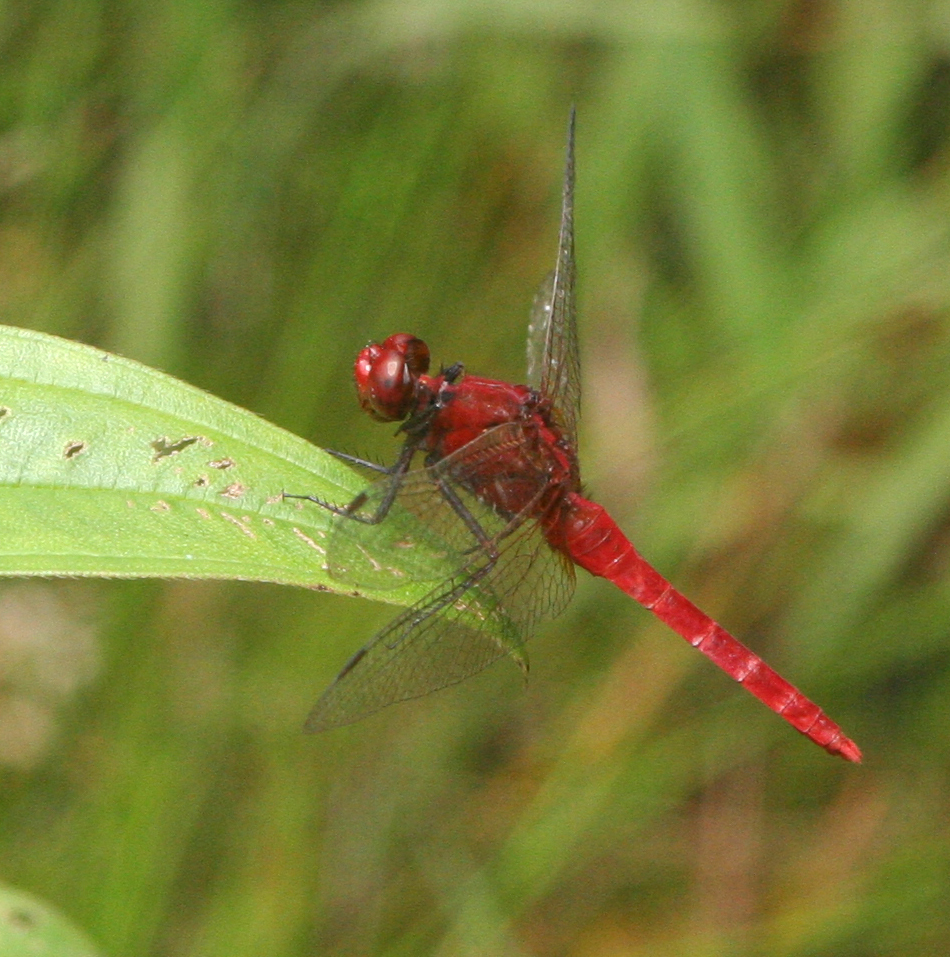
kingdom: Animalia
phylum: Arthropoda
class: Insecta
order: Odonata
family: Libellulidae
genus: Rhodothemis
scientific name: Rhodothemis rufa
